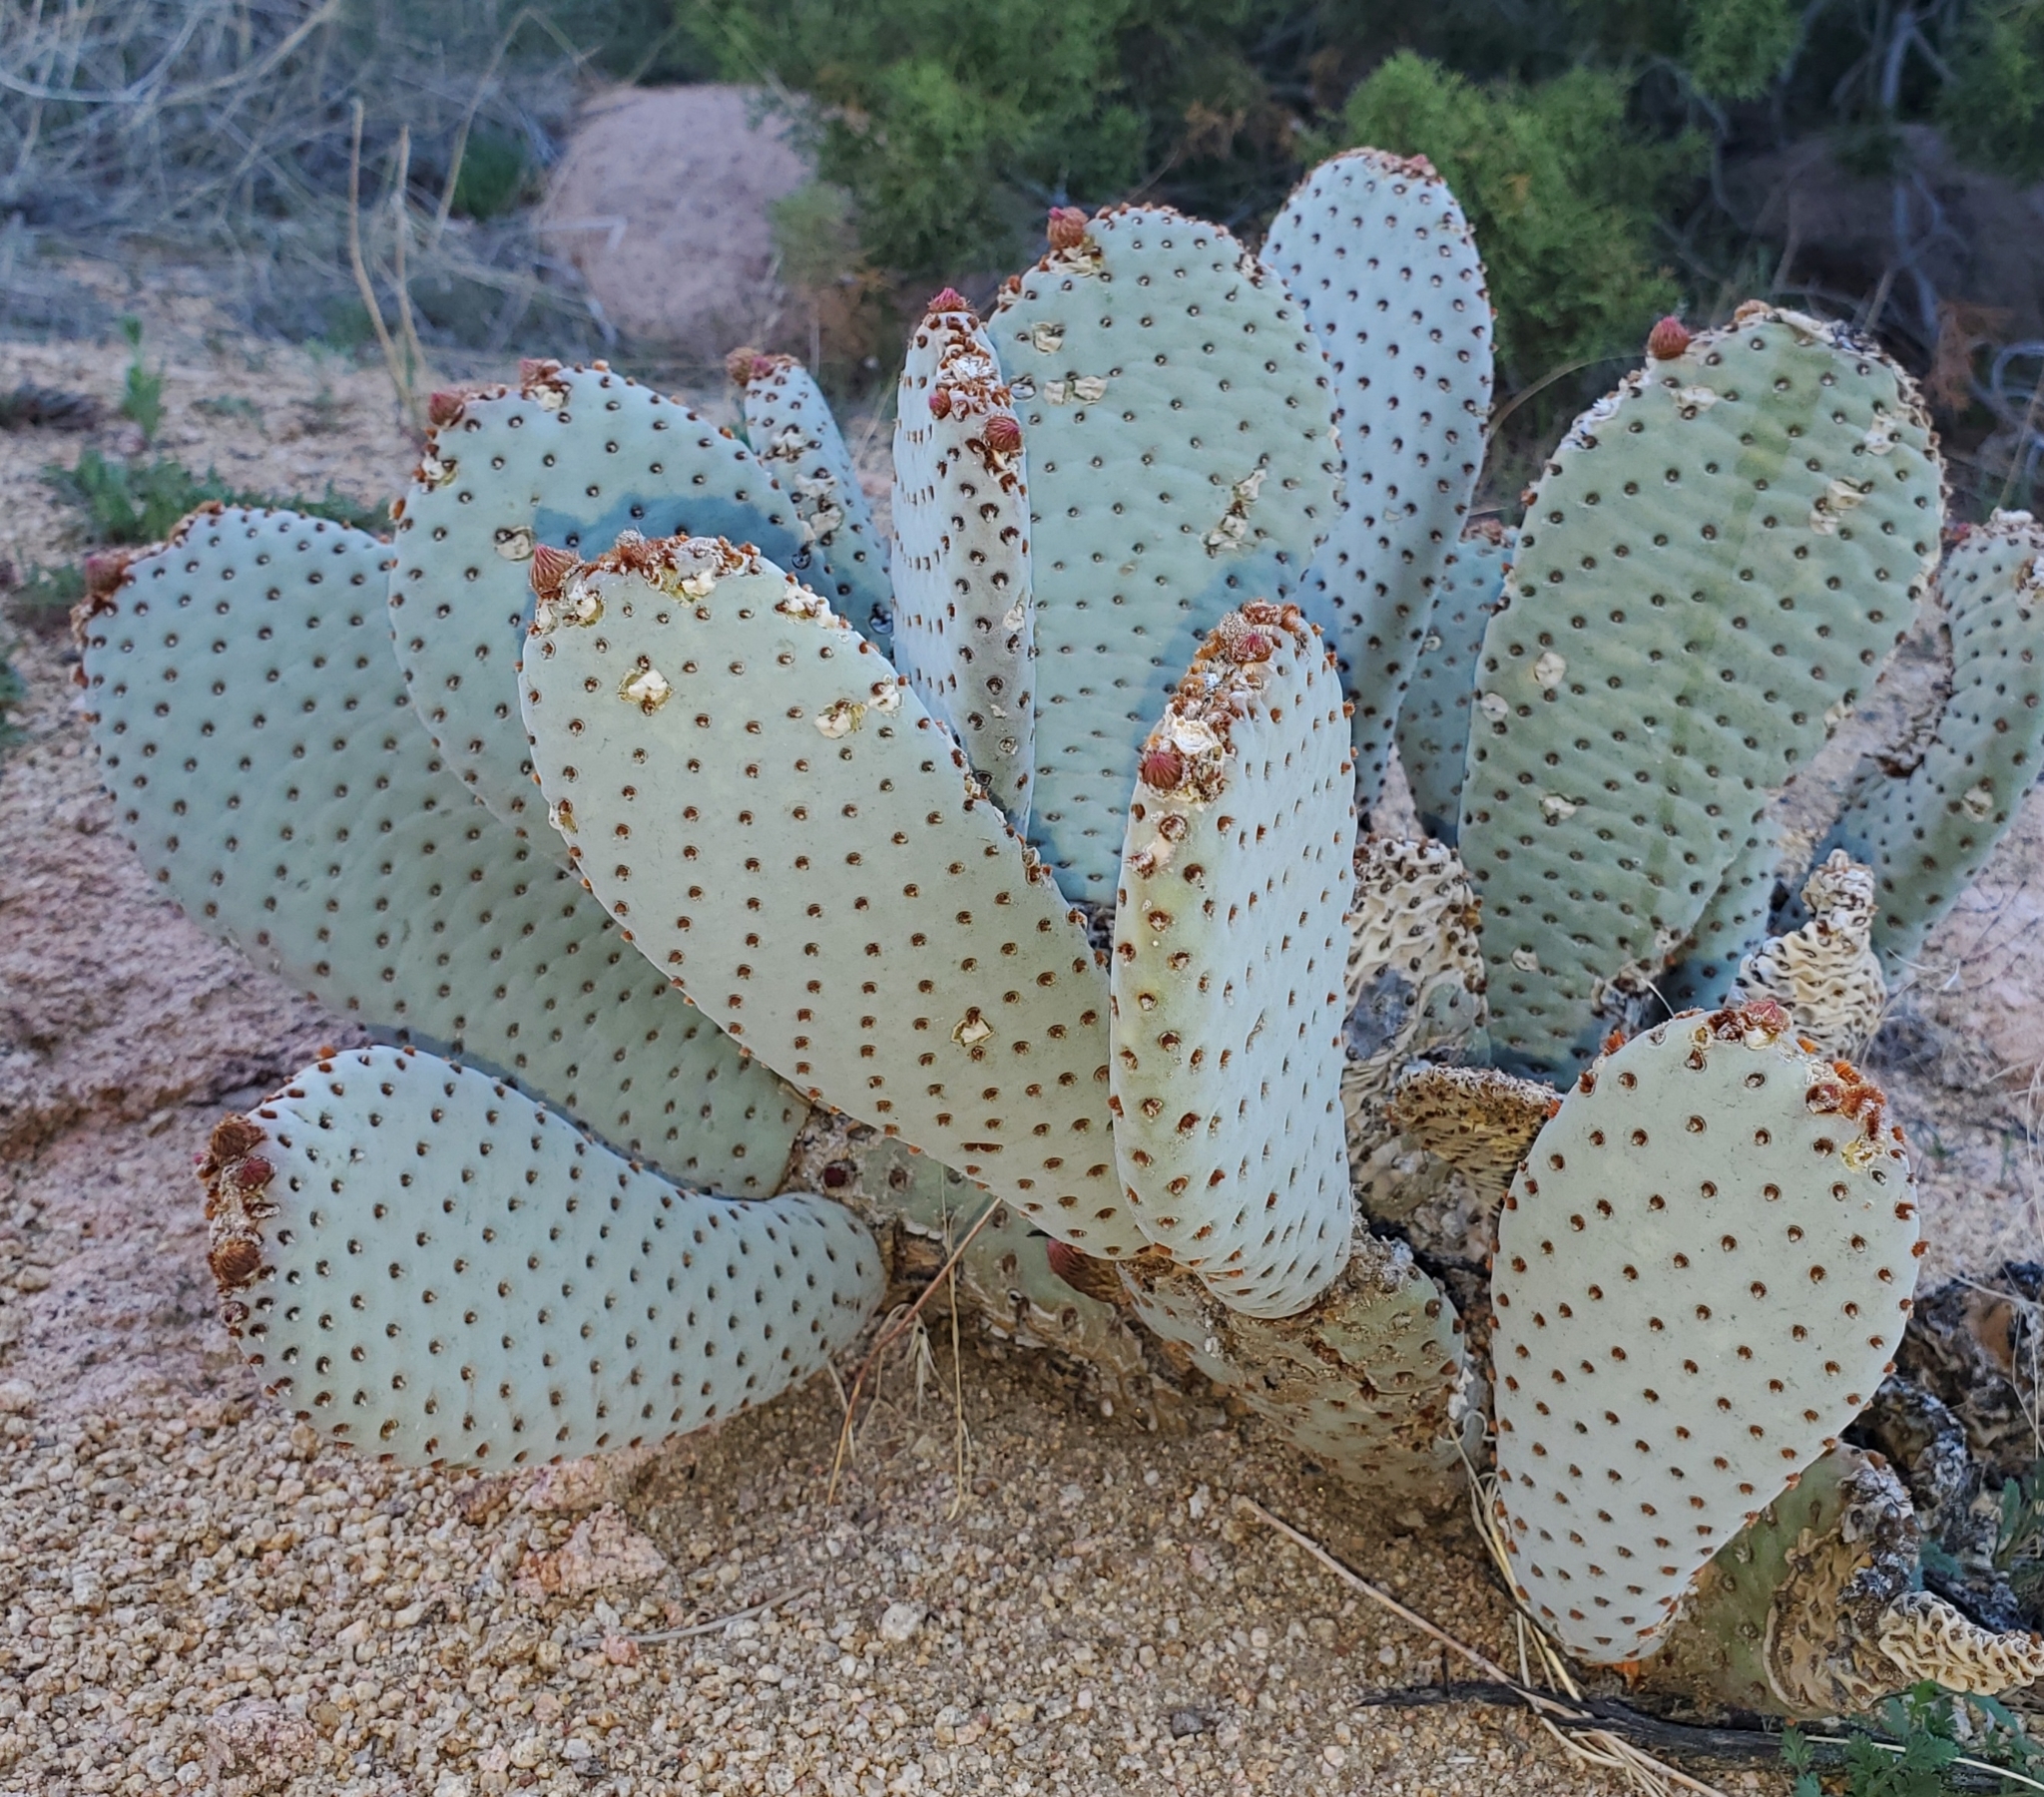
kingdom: Plantae
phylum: Tracheophyta
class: Magnoliopsida
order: Caryophyllales
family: Cactaceae
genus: Opuntia
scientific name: Opuntia basilaris
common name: Beavertail prickly-pear
